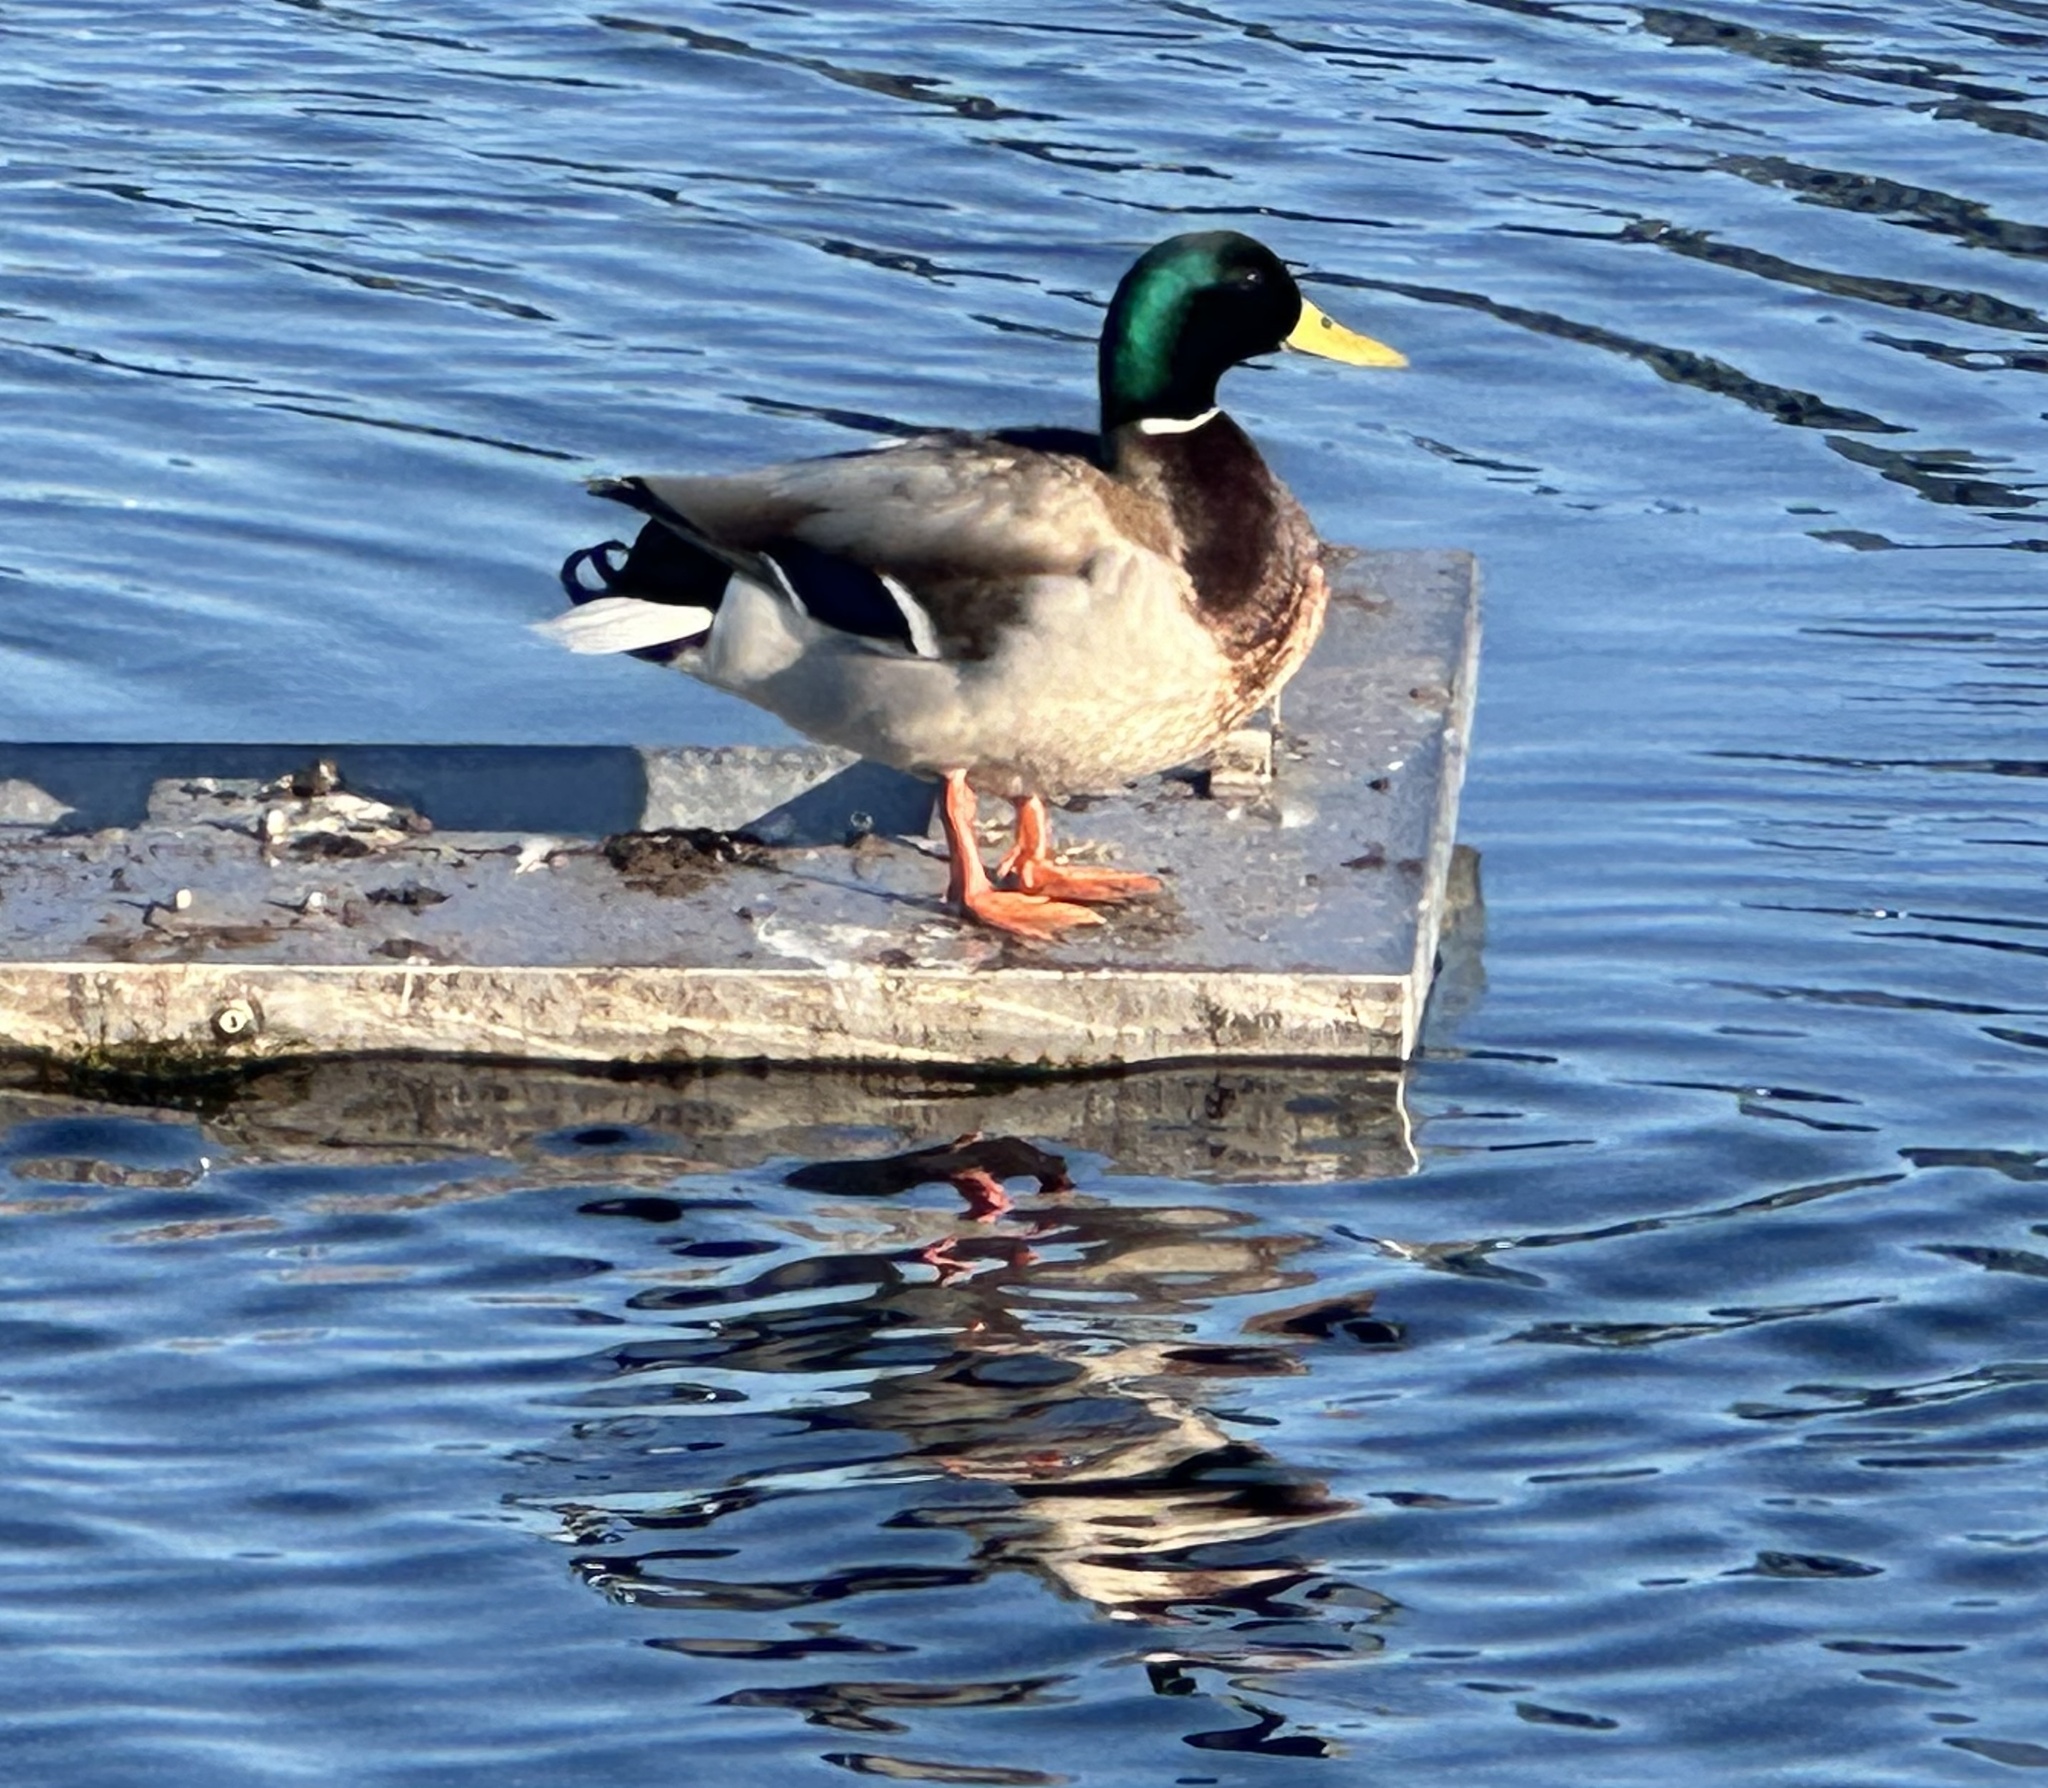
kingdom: Animalia
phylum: Chordata
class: Aves
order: Anseriformes
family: Anatidae
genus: Anas
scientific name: Anas platyrhynchos
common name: Mallard
